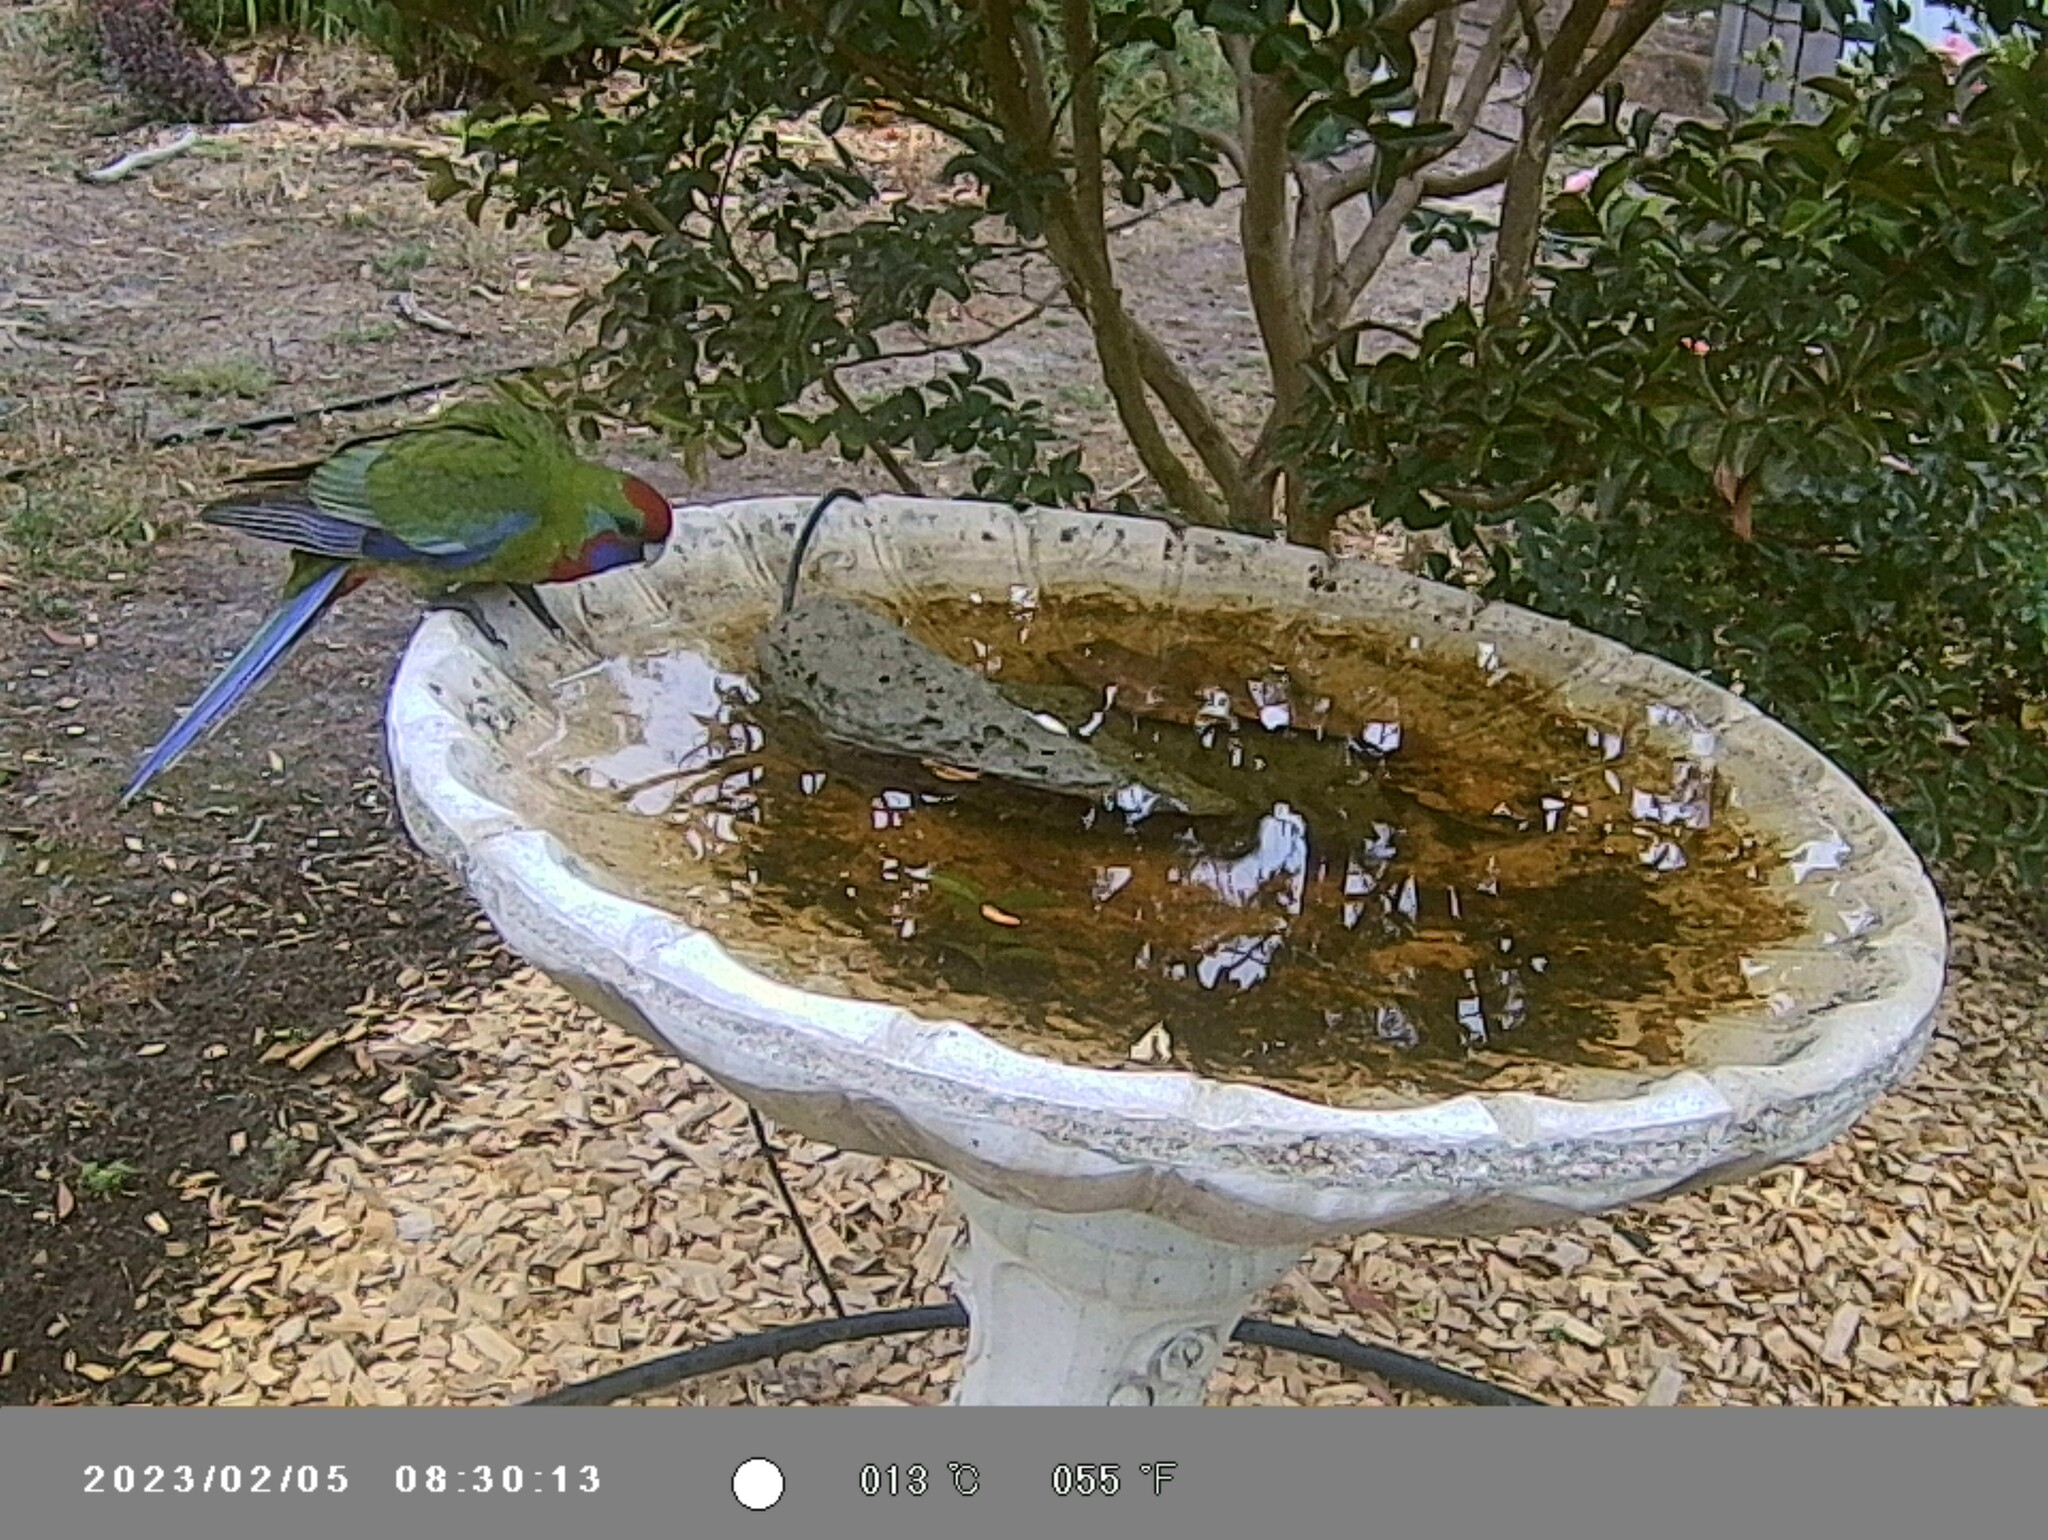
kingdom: Animalia
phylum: Chordata
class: Aves
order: Psittaciformes
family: Psittacidae
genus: Platycercus
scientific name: Platycercus elegans
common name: Crimson rosella
